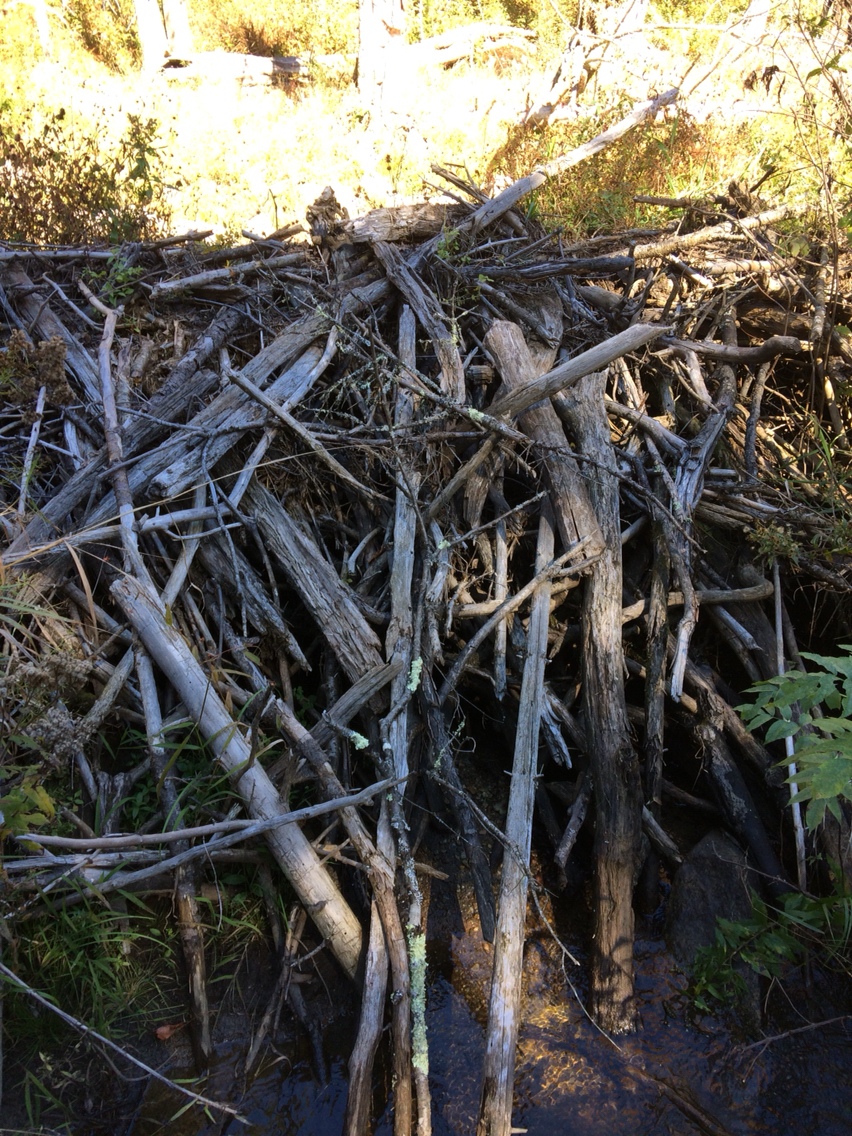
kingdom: Animalia
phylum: Chordata
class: Mammalia
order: Rodentia
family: Castoridae
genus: Castor
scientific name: Castor canadensis
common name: American beaver
